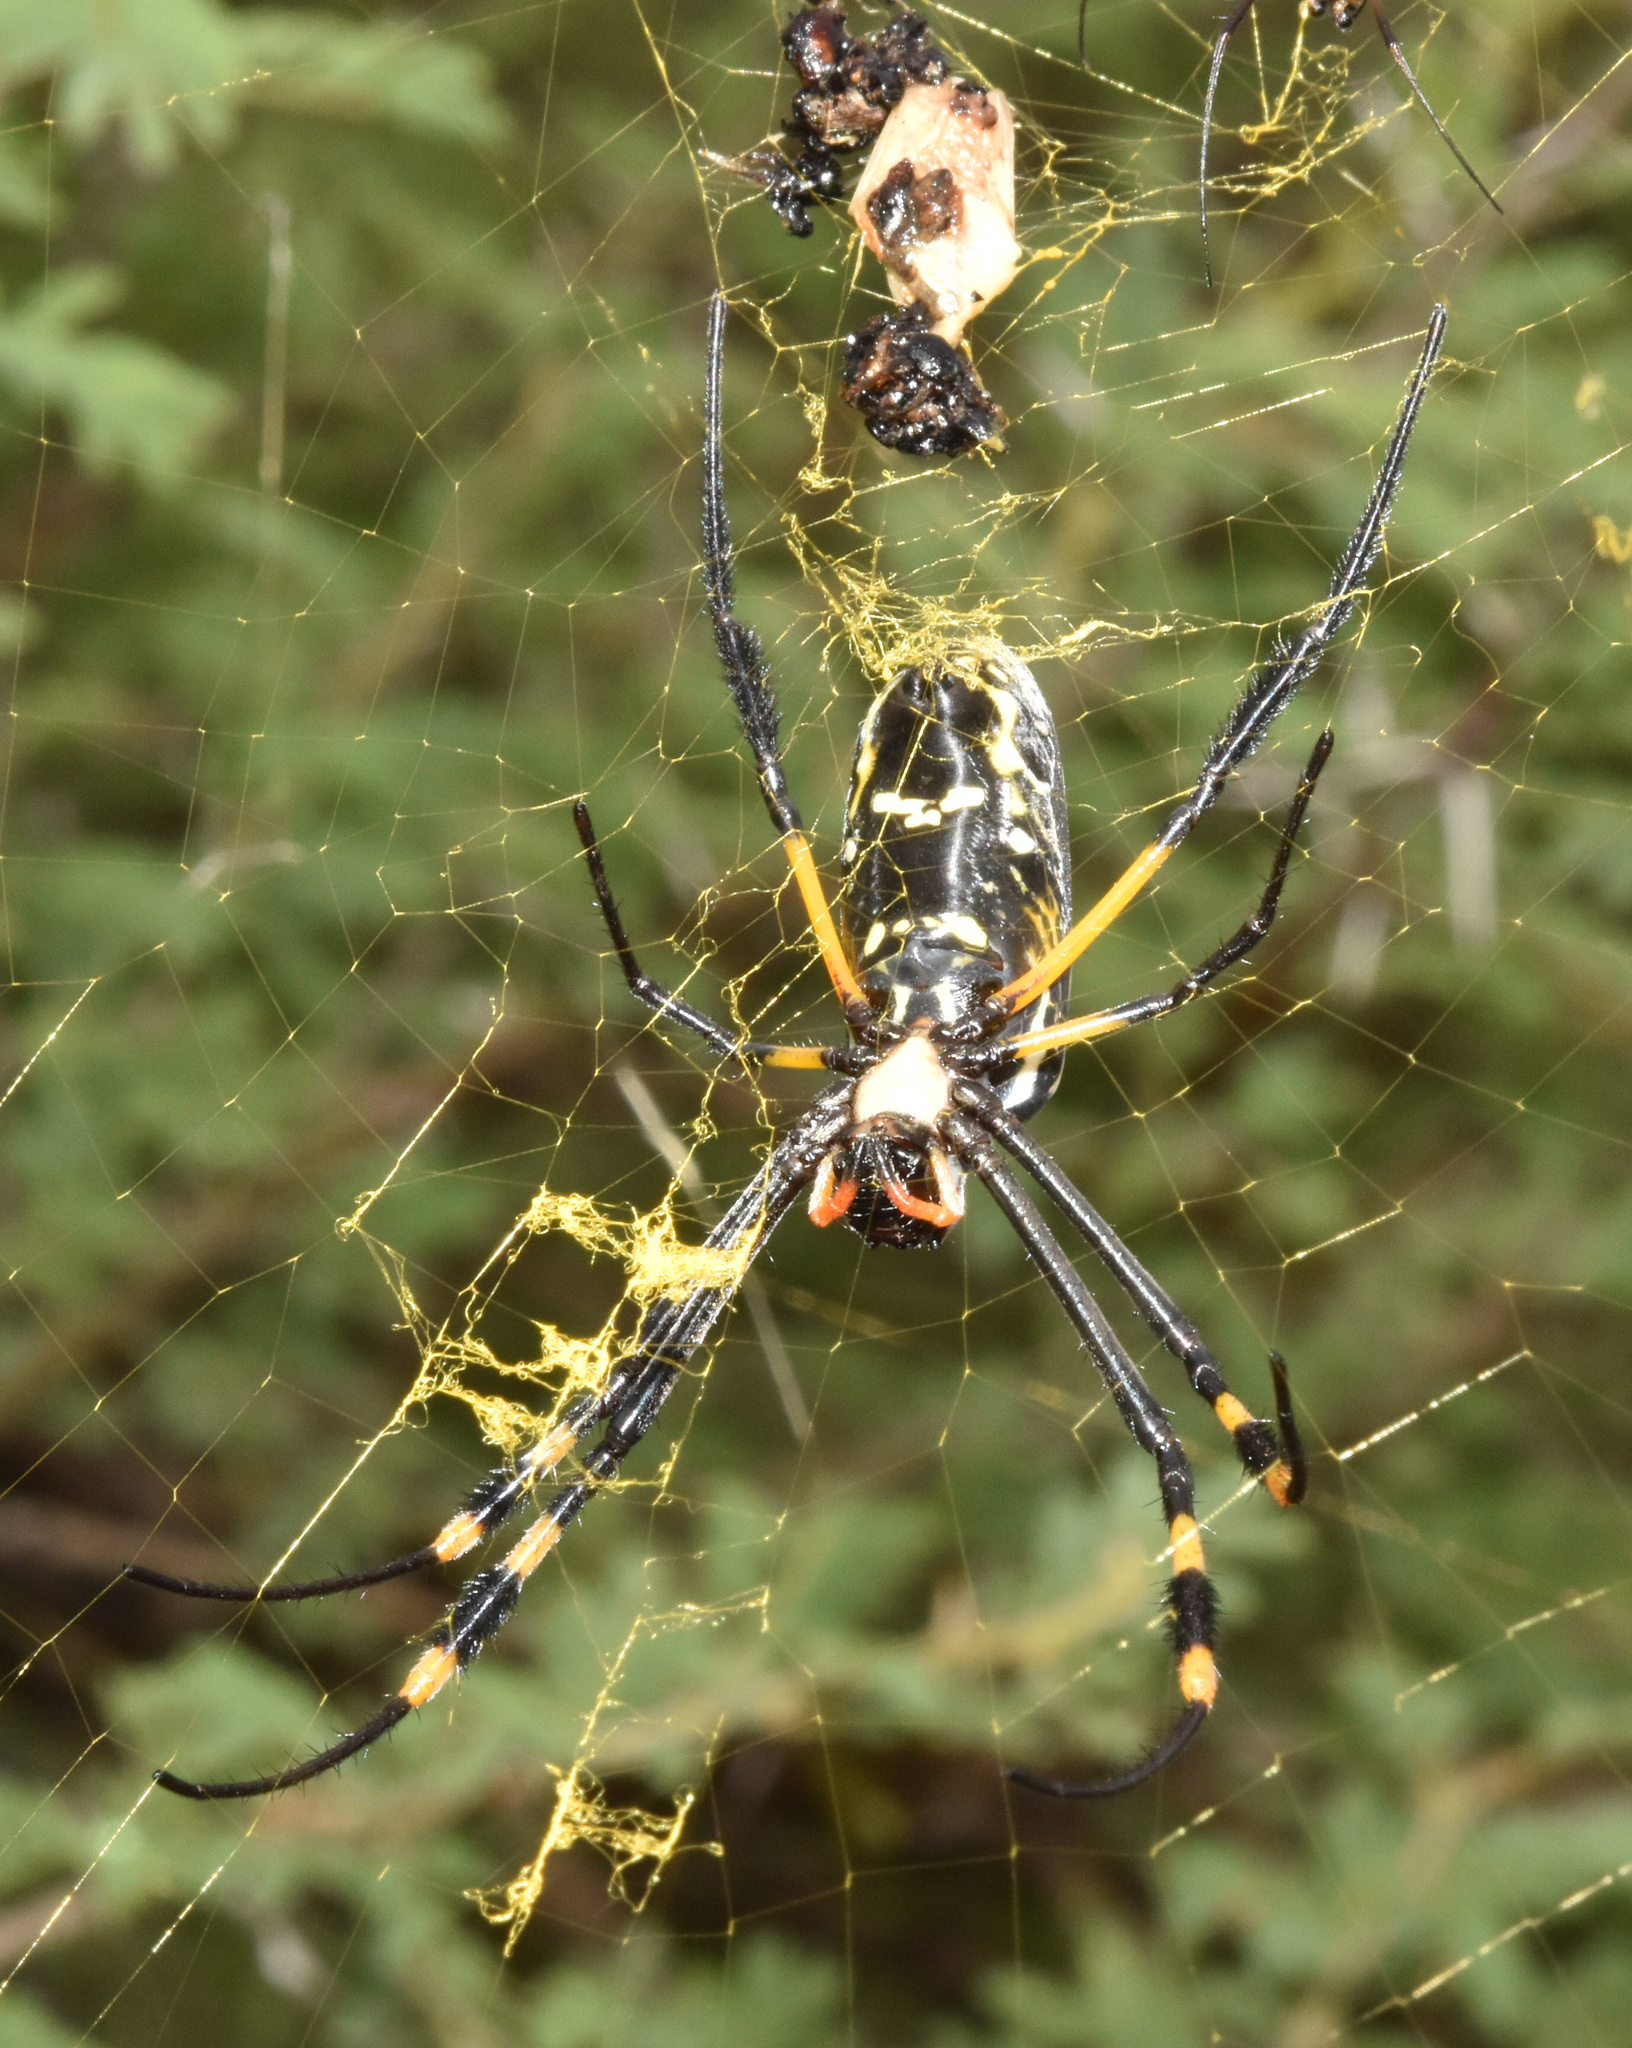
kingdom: Animalia
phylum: Arthropoda
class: Arachnida
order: Araneae
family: Araneidae
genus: Trichonephila
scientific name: Trichonephila senegalensis
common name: Banded golden orb weaver
